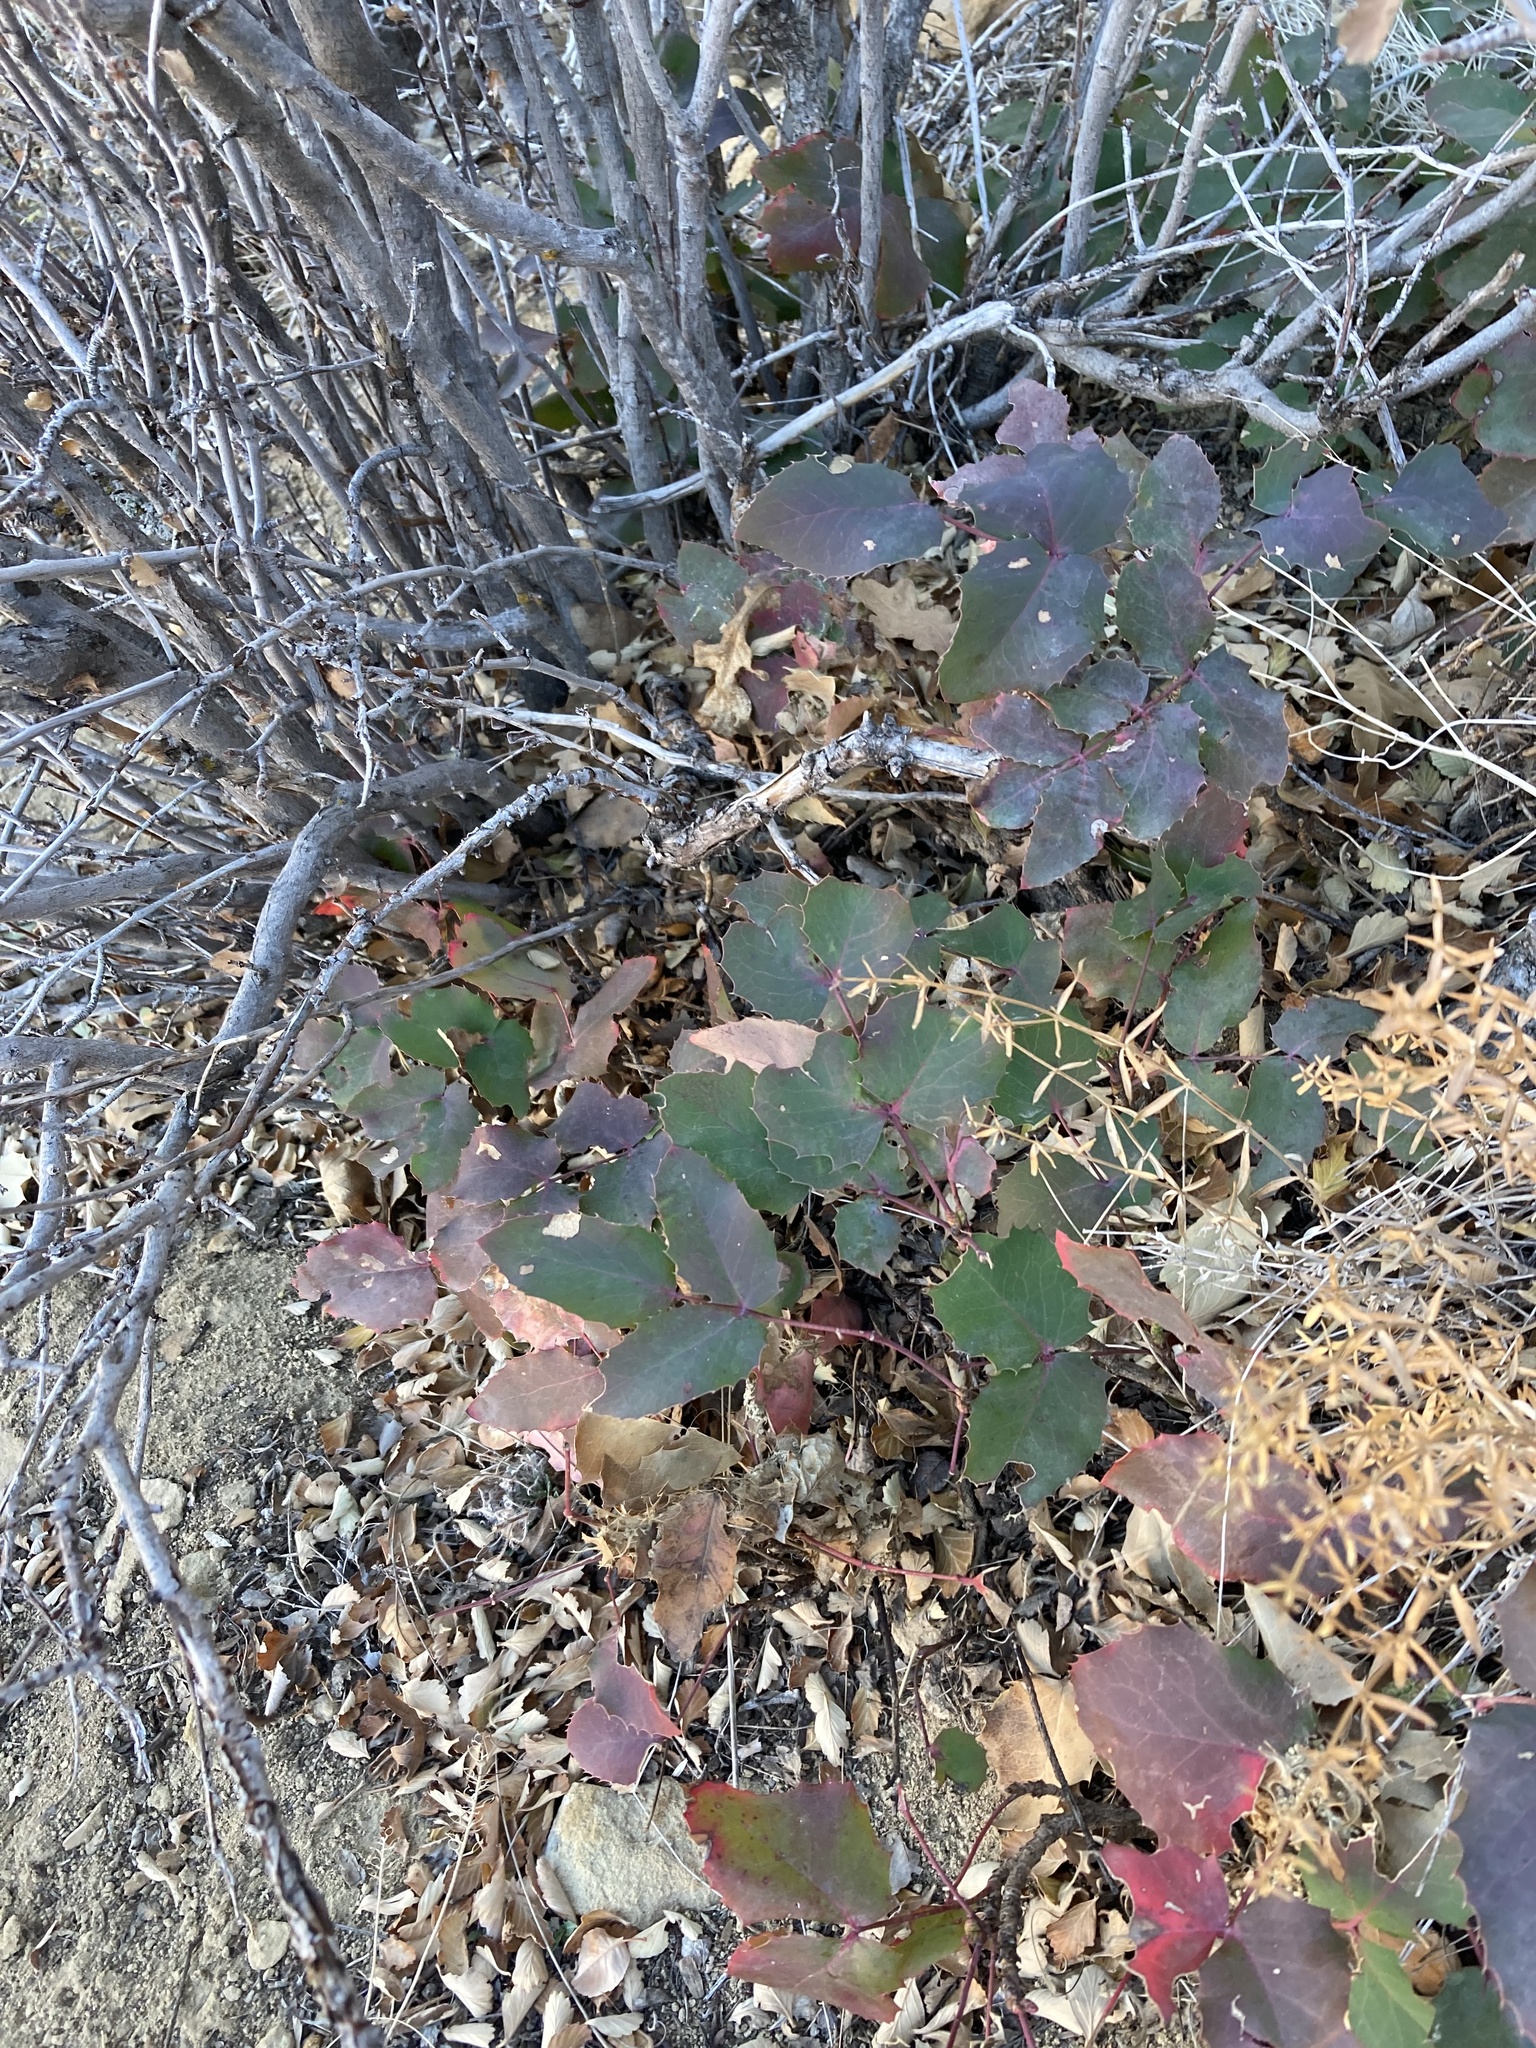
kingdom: Plantae
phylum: Tracheophyta
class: Magnoliopsida
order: Ranunculales
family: Berberidaceae
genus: Mahonia
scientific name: Mahonia repens
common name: Creeping oregon-grape
